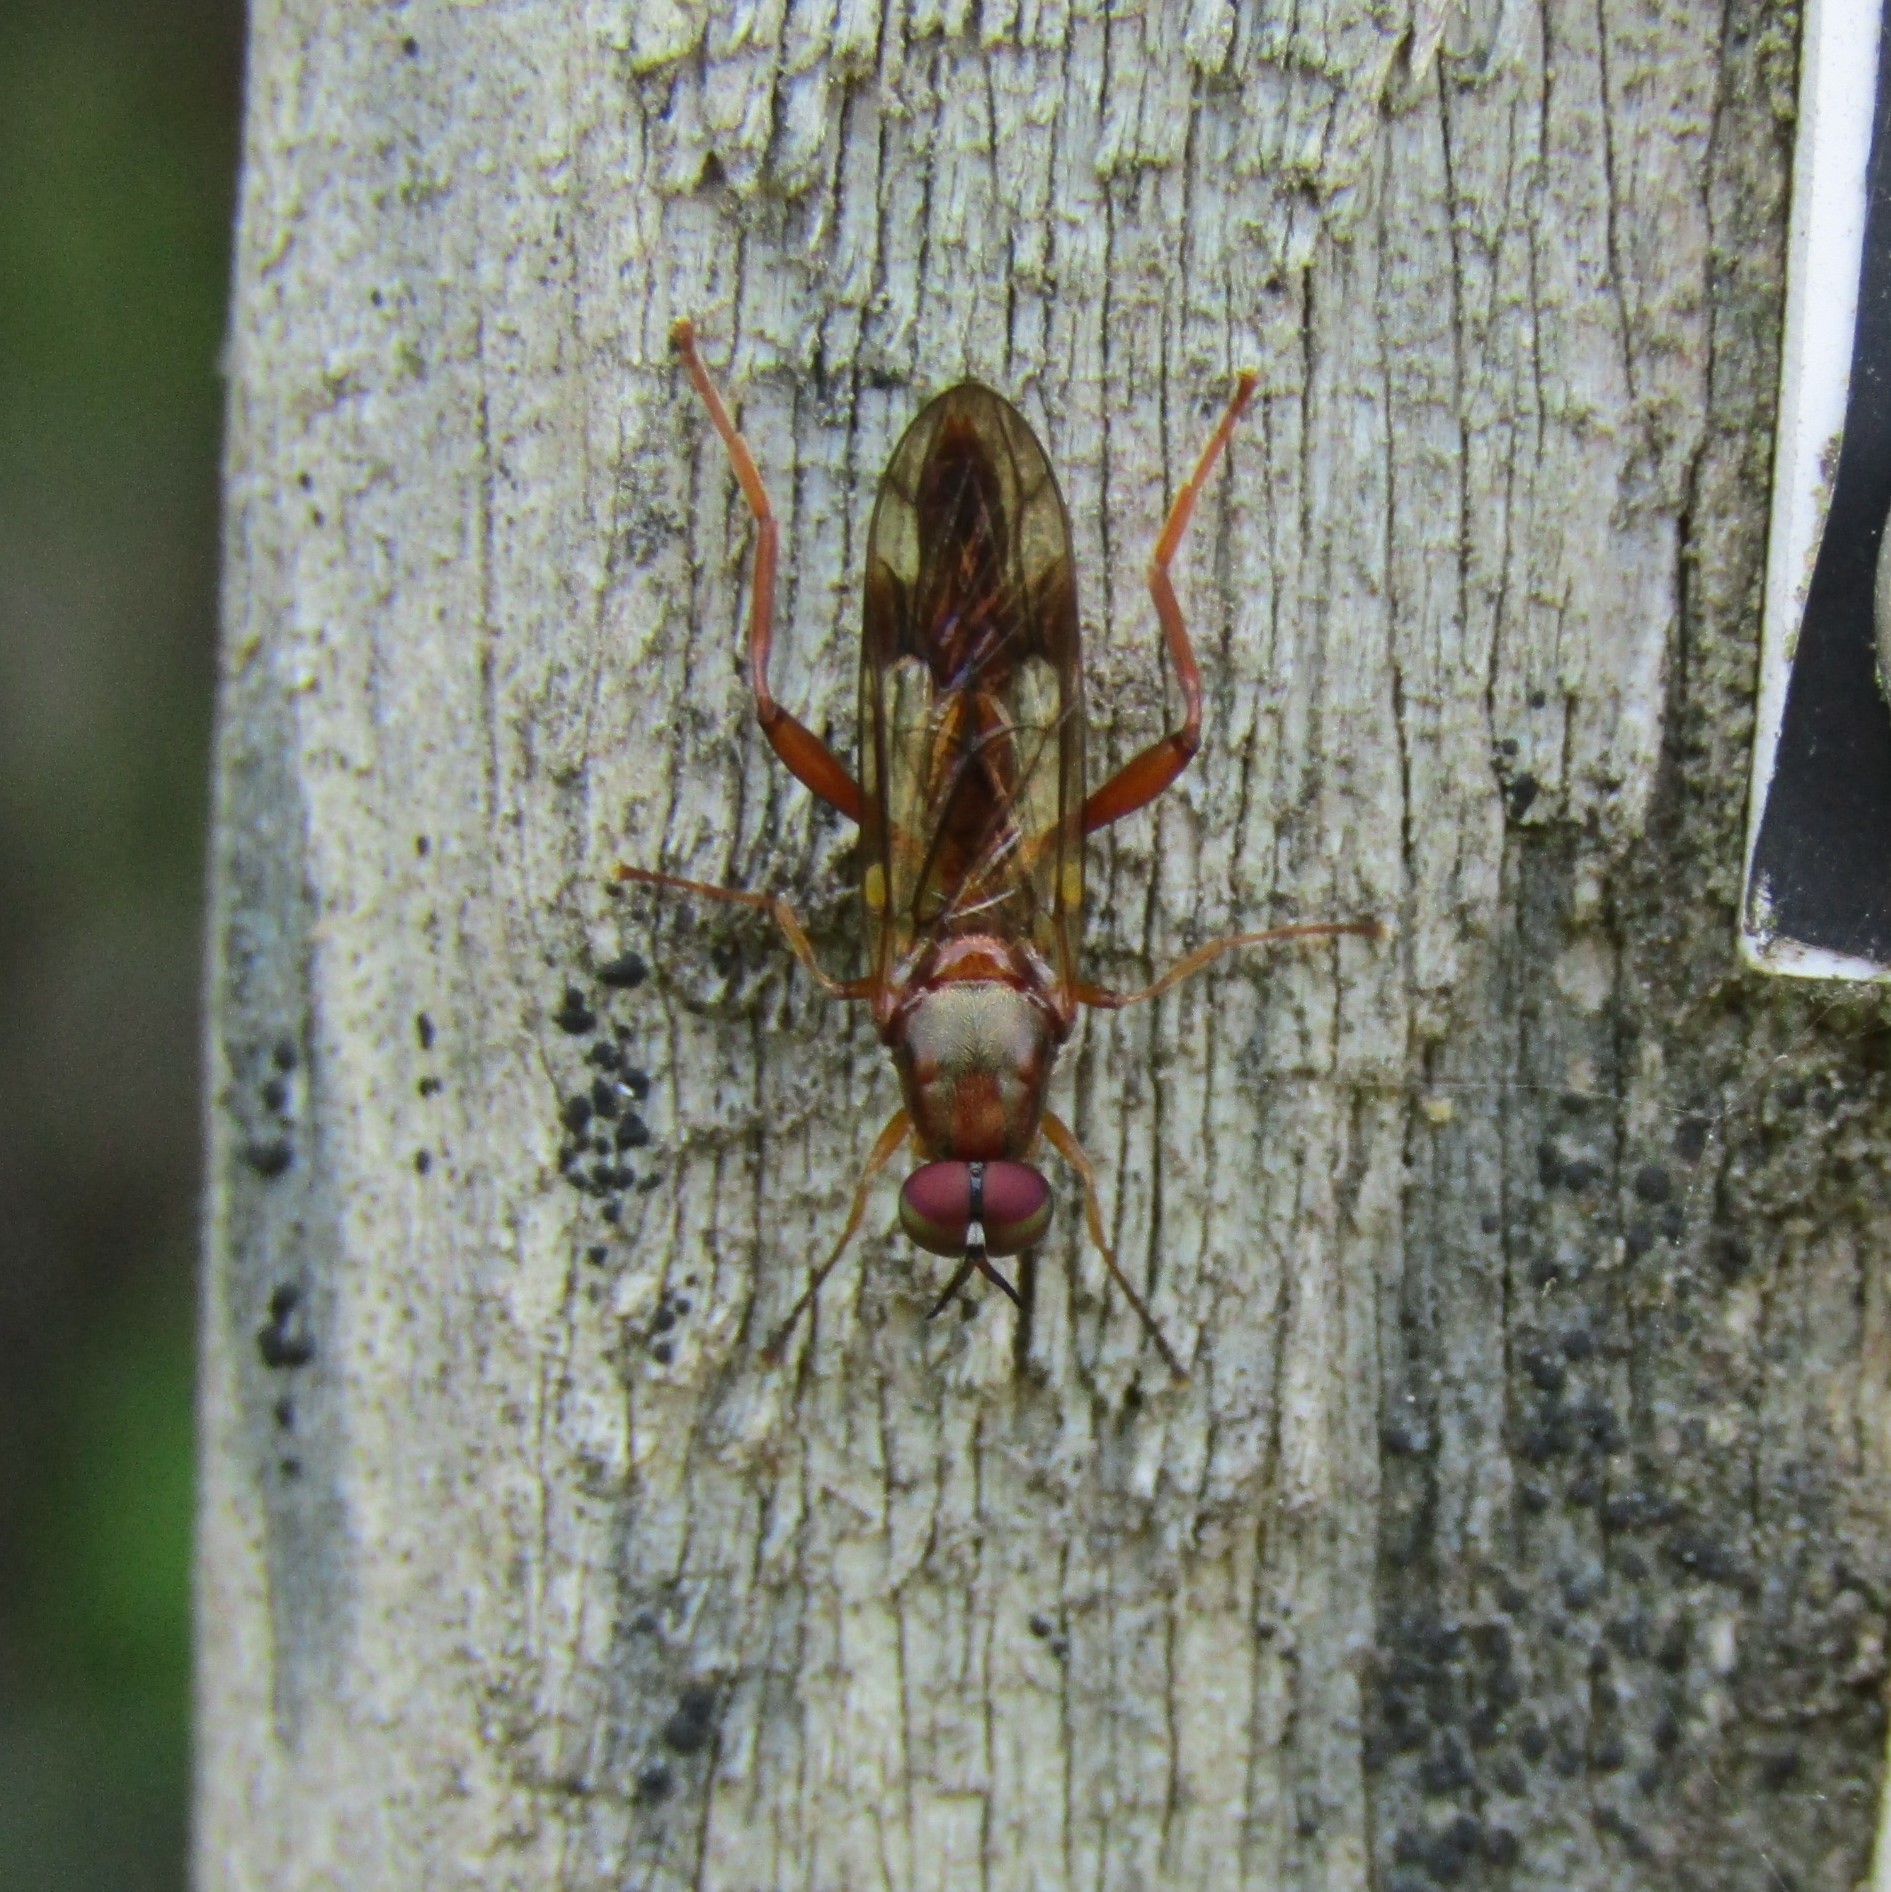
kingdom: Animalia
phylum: Arthropoda
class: Insecta
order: Diptera
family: Stratiomyidae
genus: Benhamyia
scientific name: Benhamyia straznitzkii
